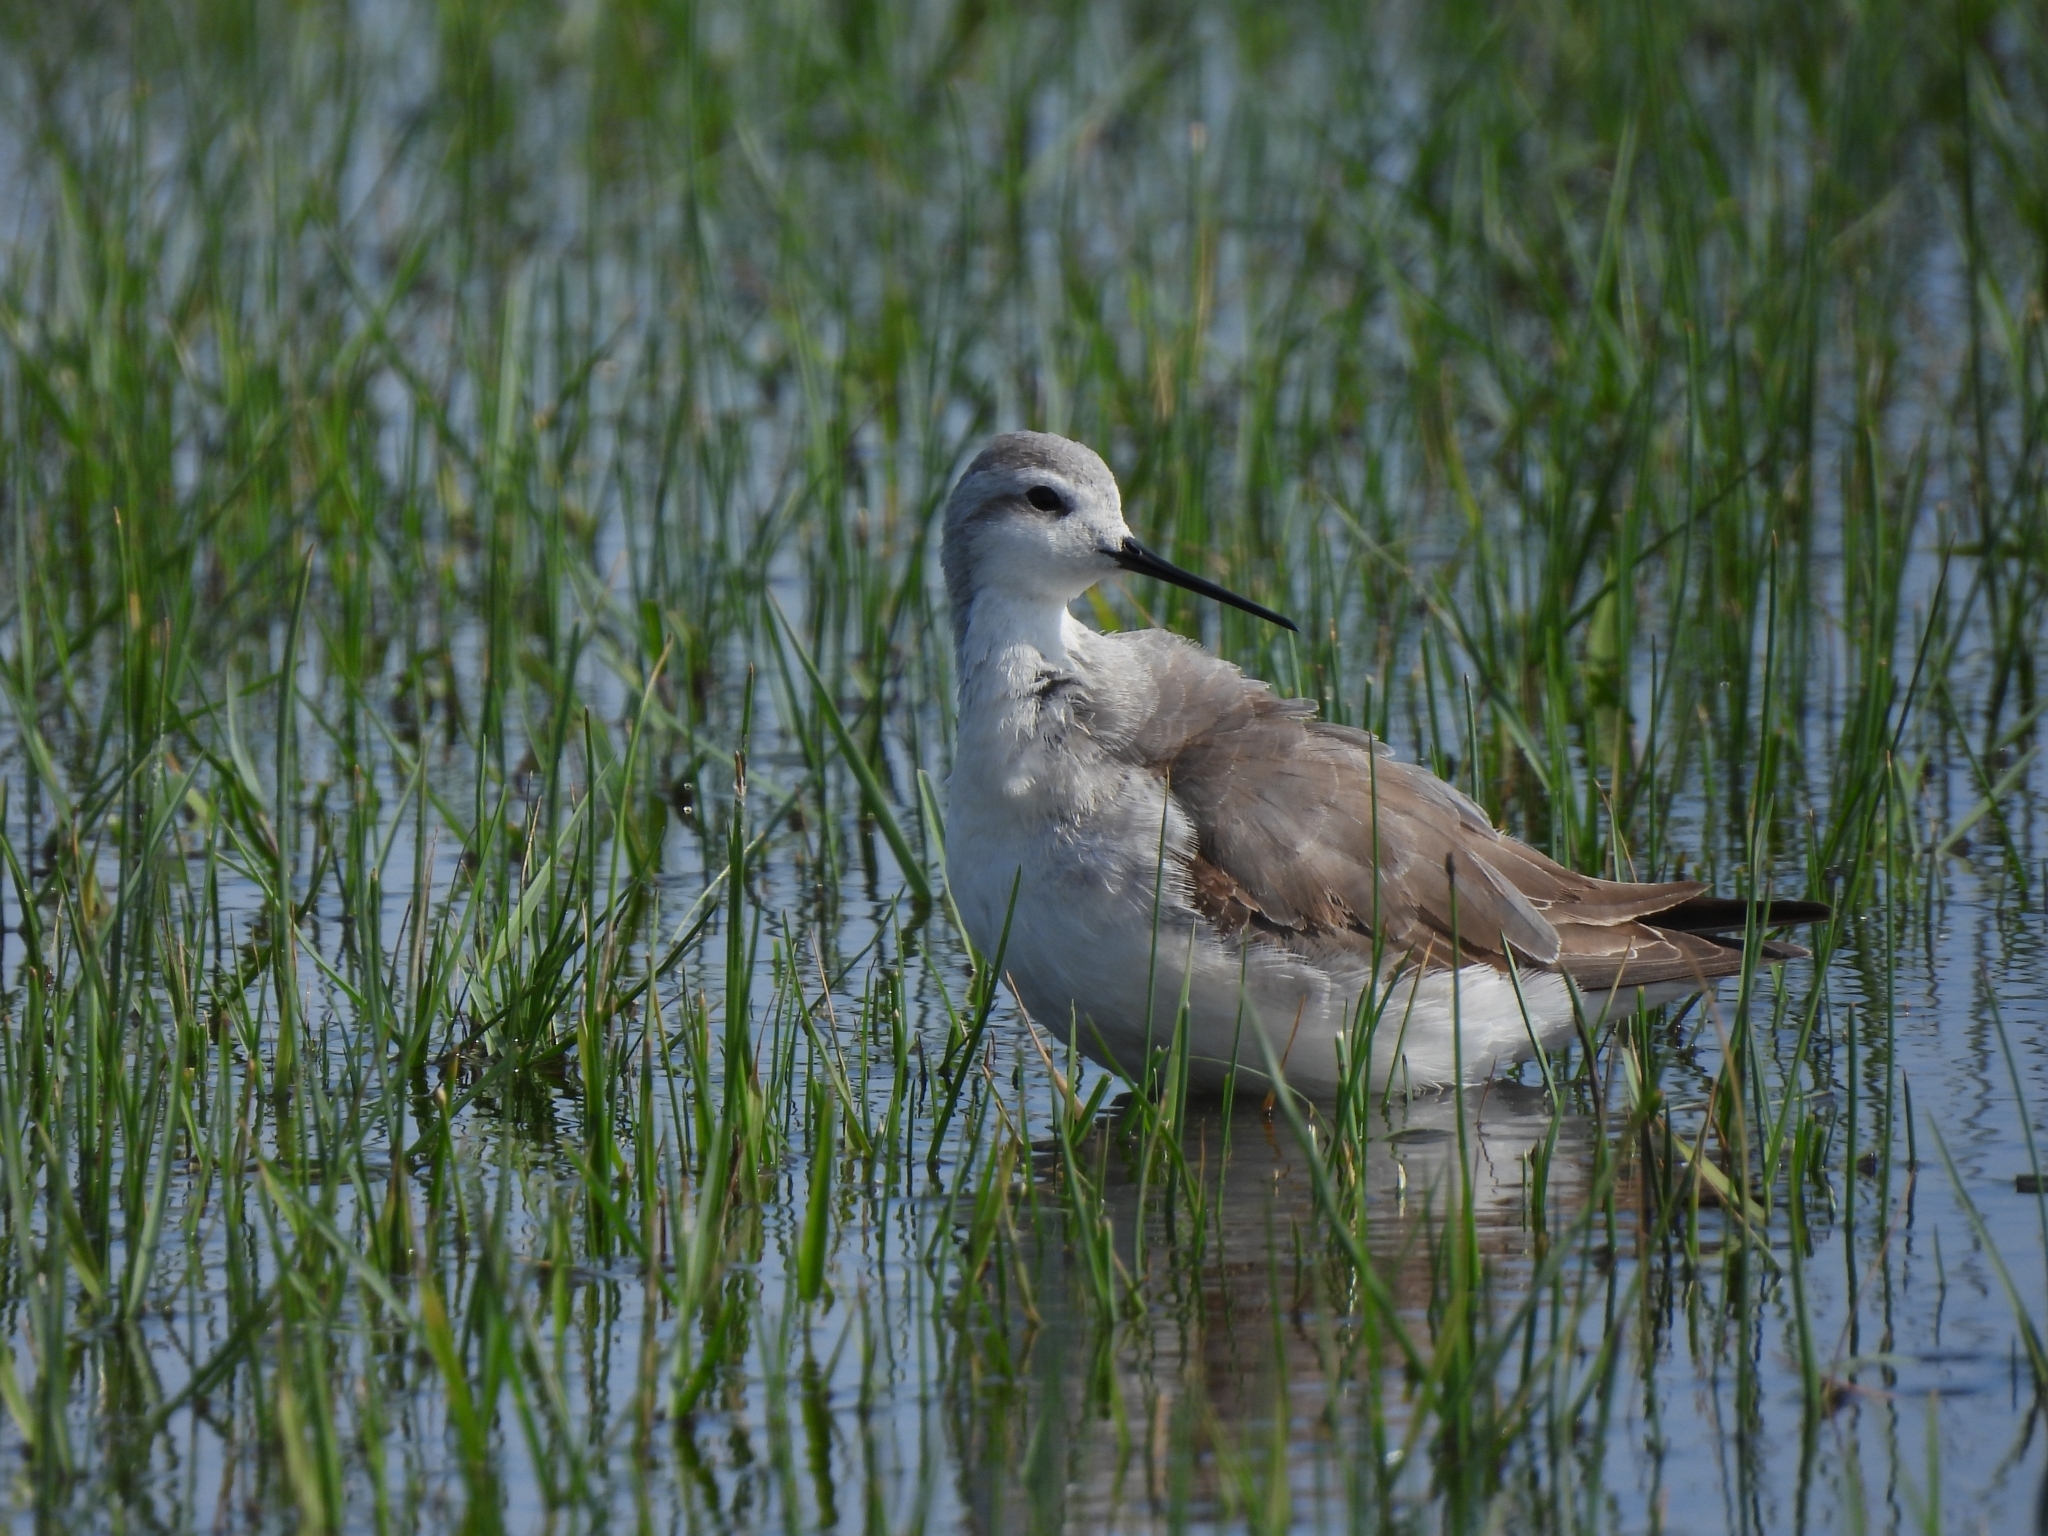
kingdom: Animalia
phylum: Chordata
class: Aves
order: Charadriiformes
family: Scolopacidae
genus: Phalaropus
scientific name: Phalaropus tricolor
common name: Wilson's phalarope
